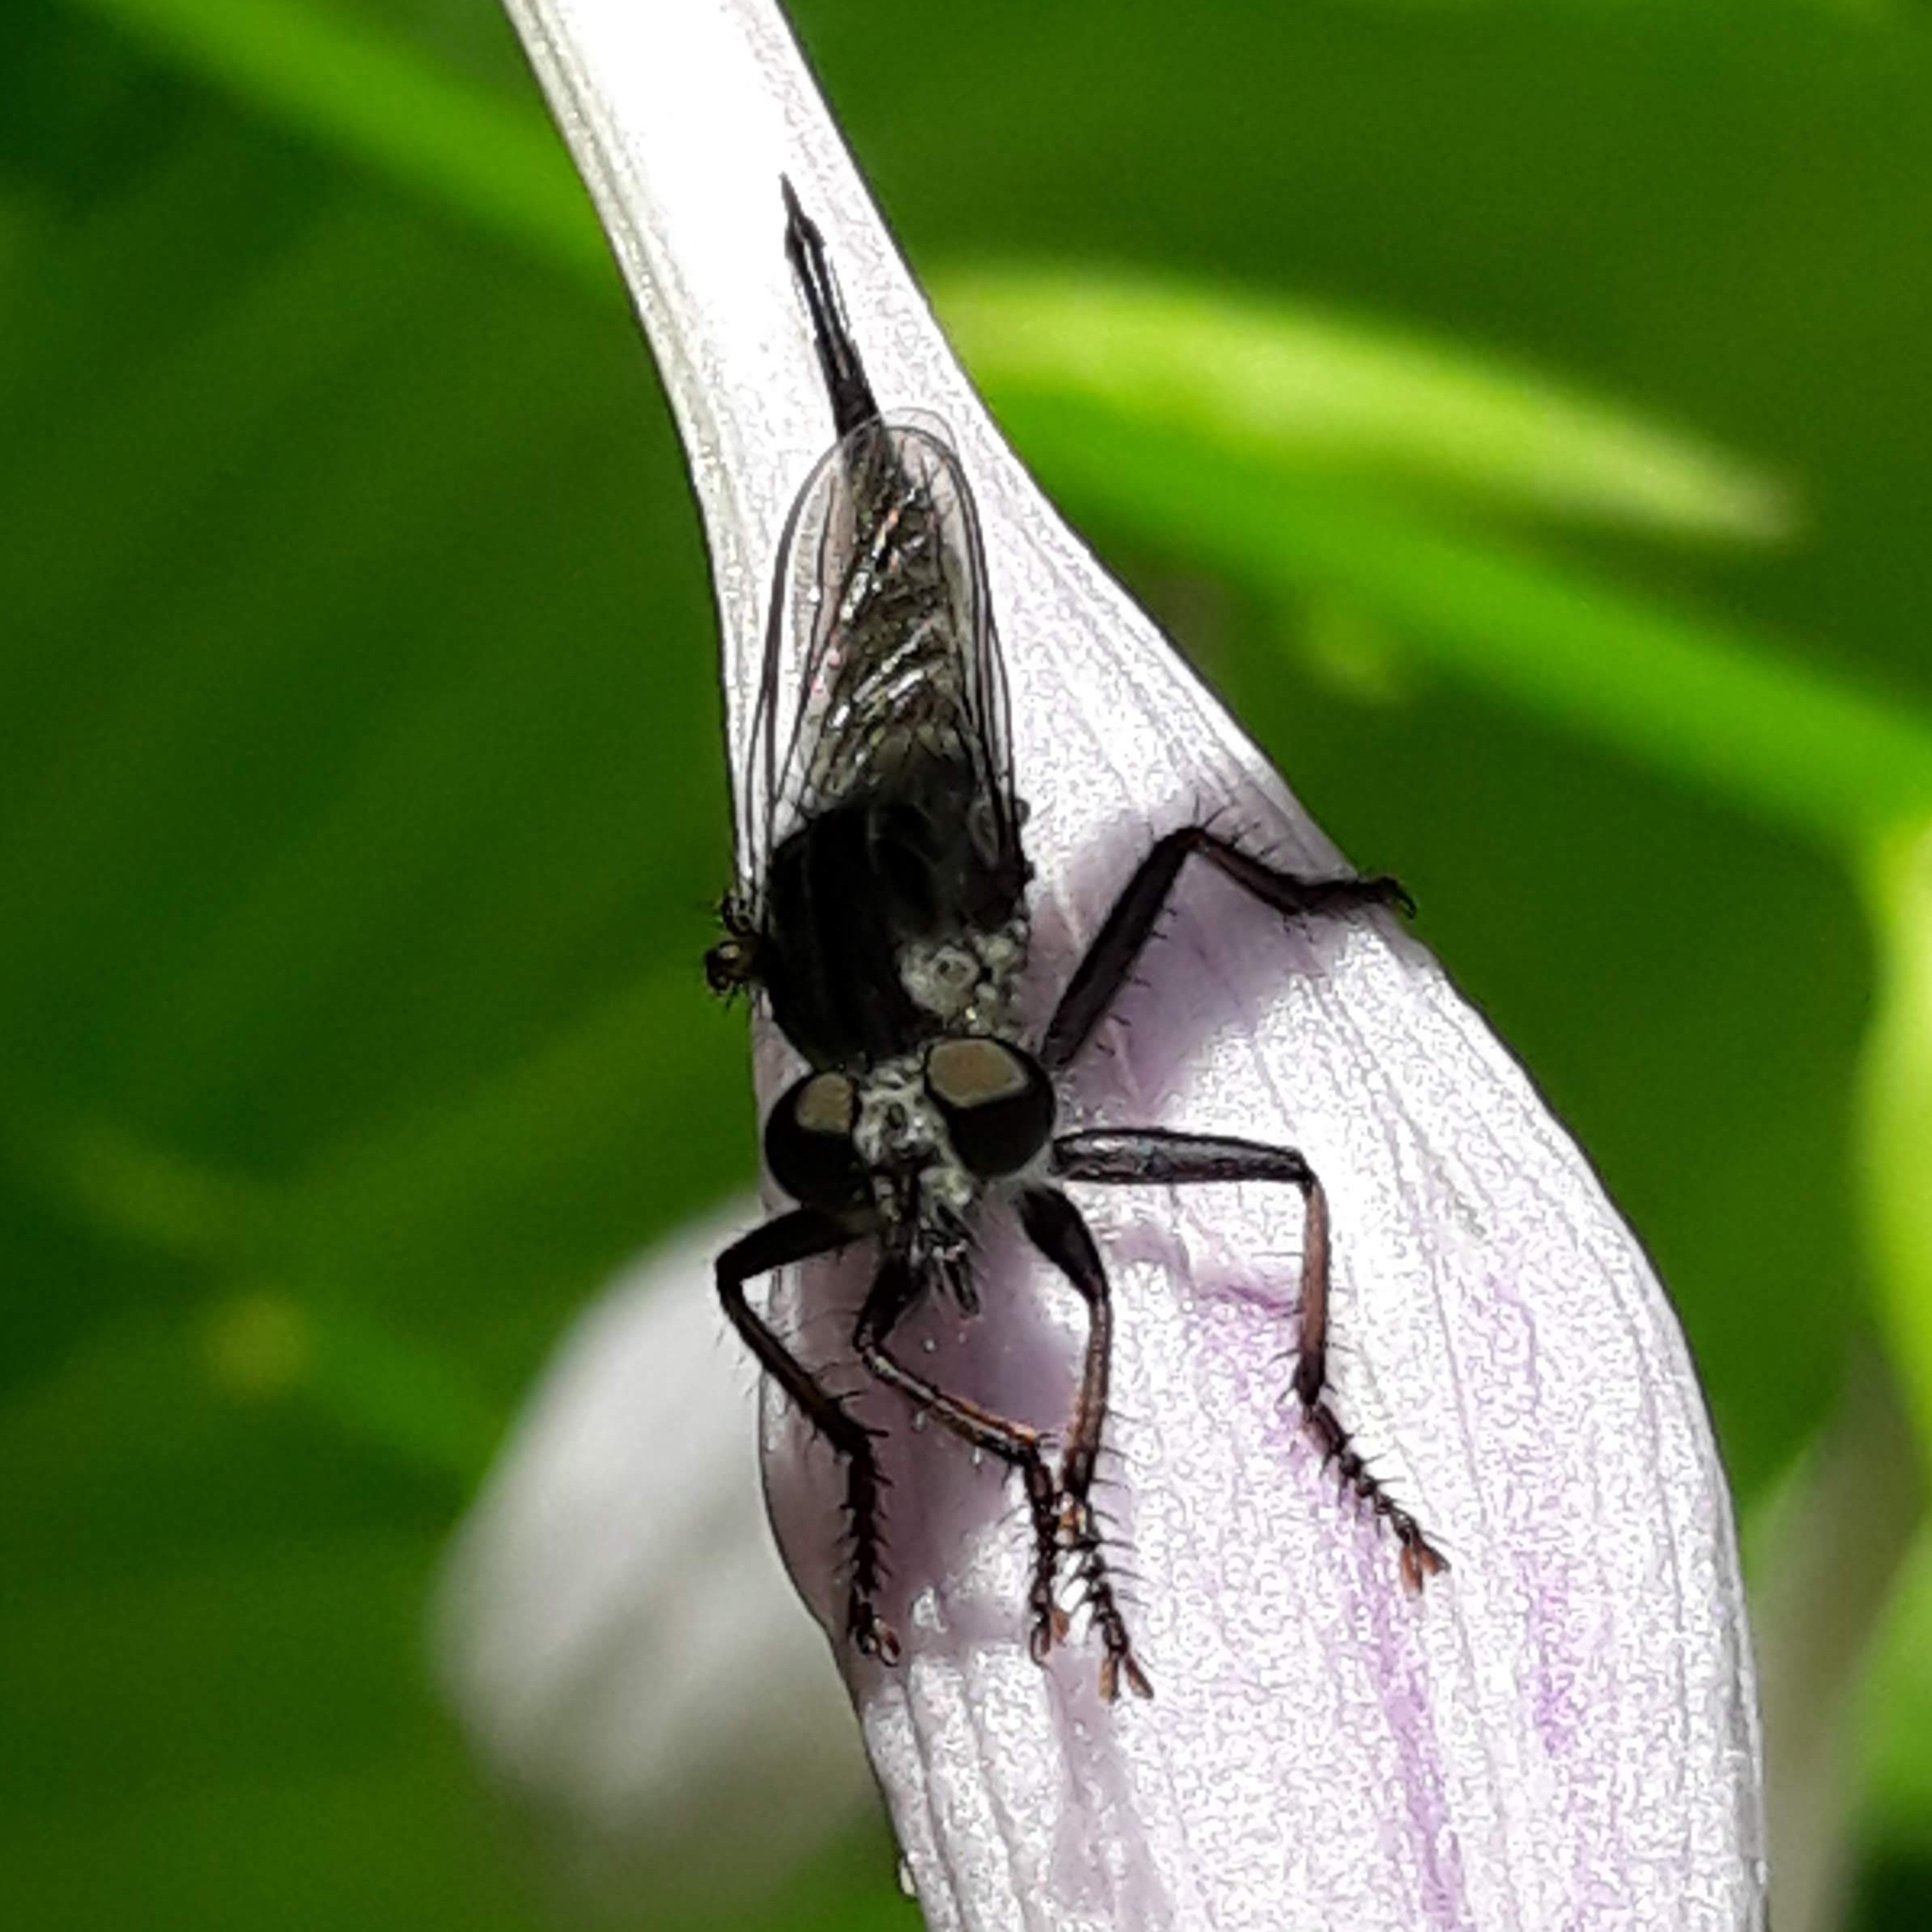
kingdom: Animalia
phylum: Arthropoda
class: Insecta
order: Diptera
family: Asilidae
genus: Efferia
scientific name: Efferia aestuans
